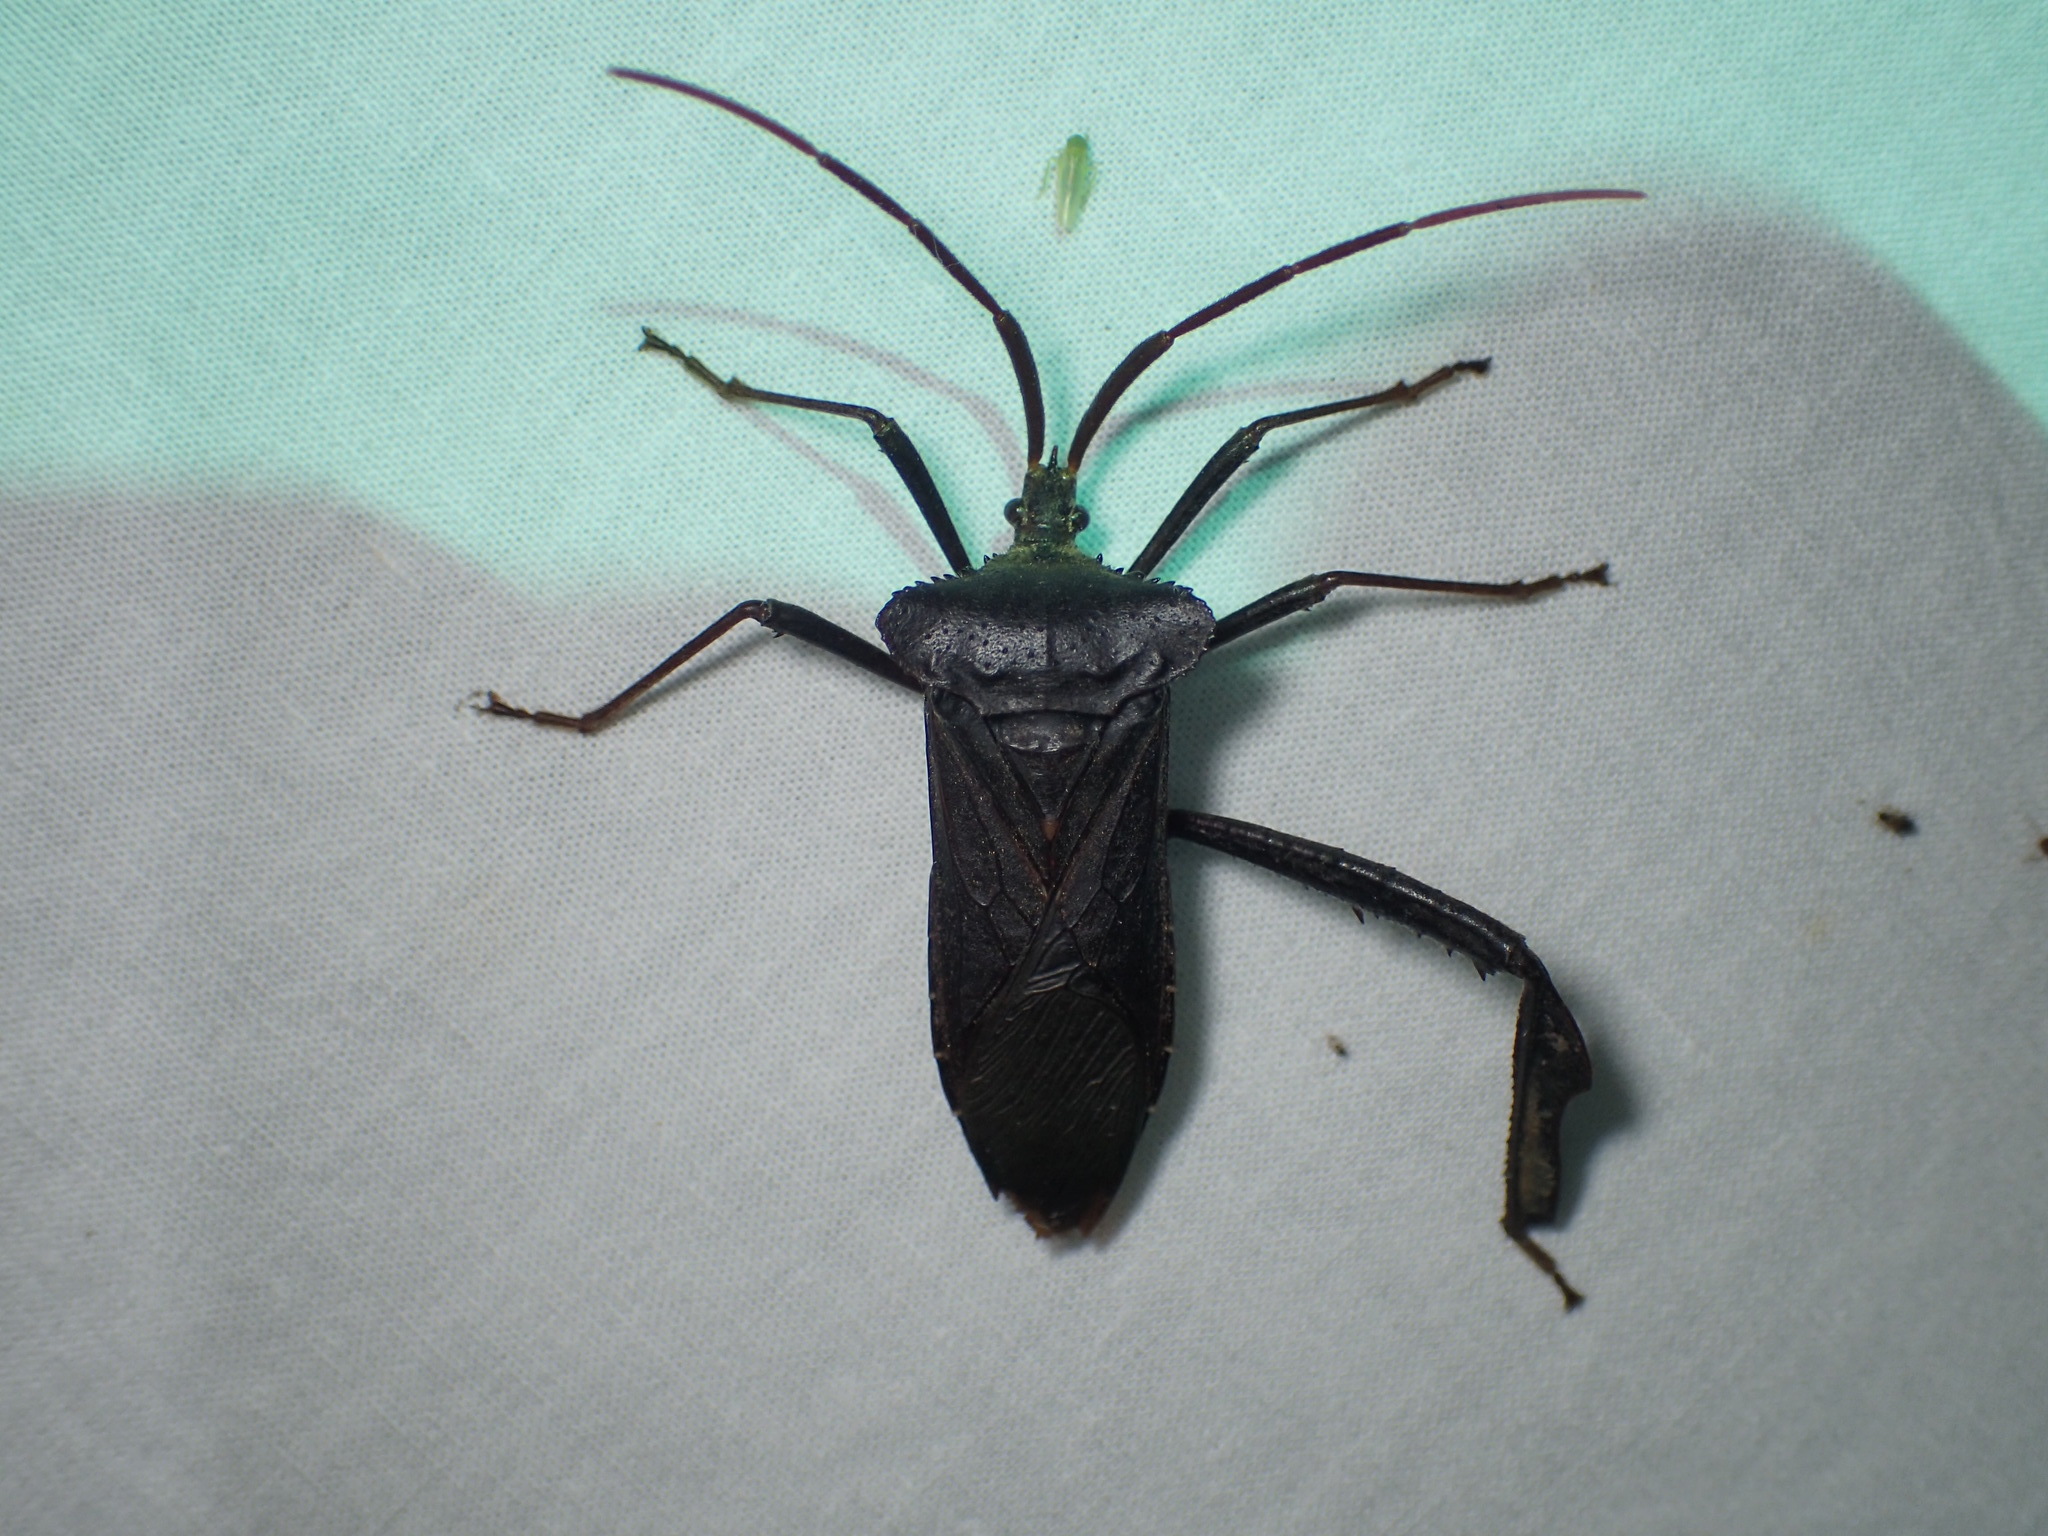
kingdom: Animalia
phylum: Arthropoda
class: Insecta
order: Hemiptera
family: Coreidae
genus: Acanthocephala
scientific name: Acanthocephala declivis
